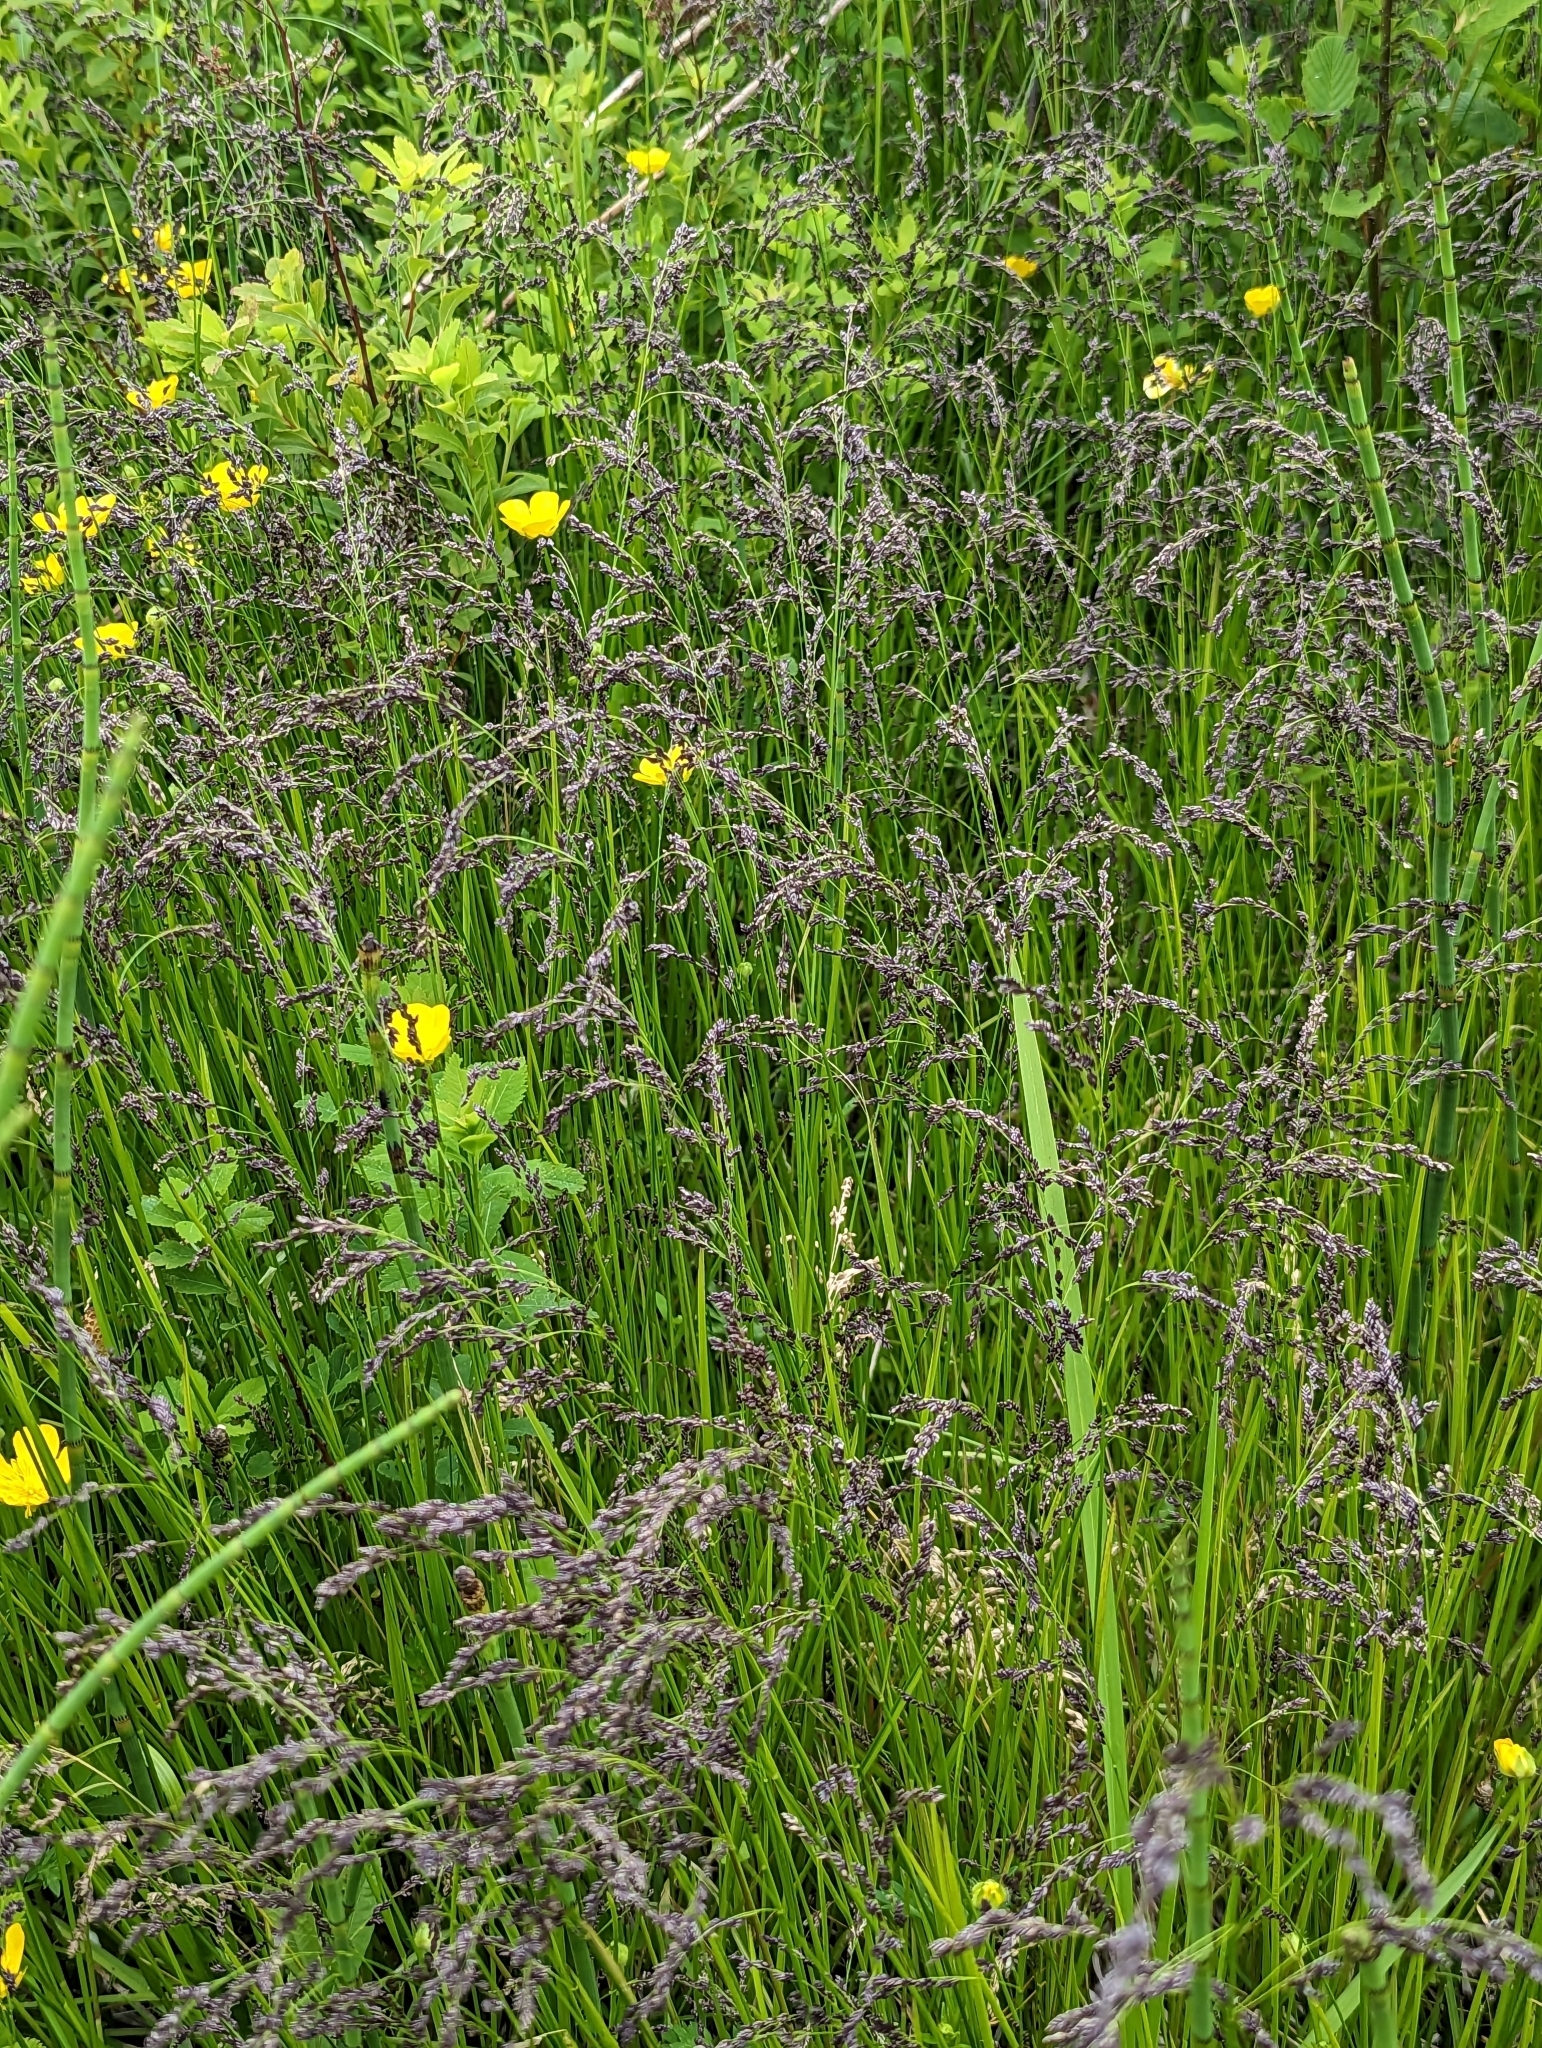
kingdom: Plantae
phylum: Tracheophyta
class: Liliopsida
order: Poales
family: Poaceae
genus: Glyceria
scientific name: Glyceria striata
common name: Fowl manna grass
